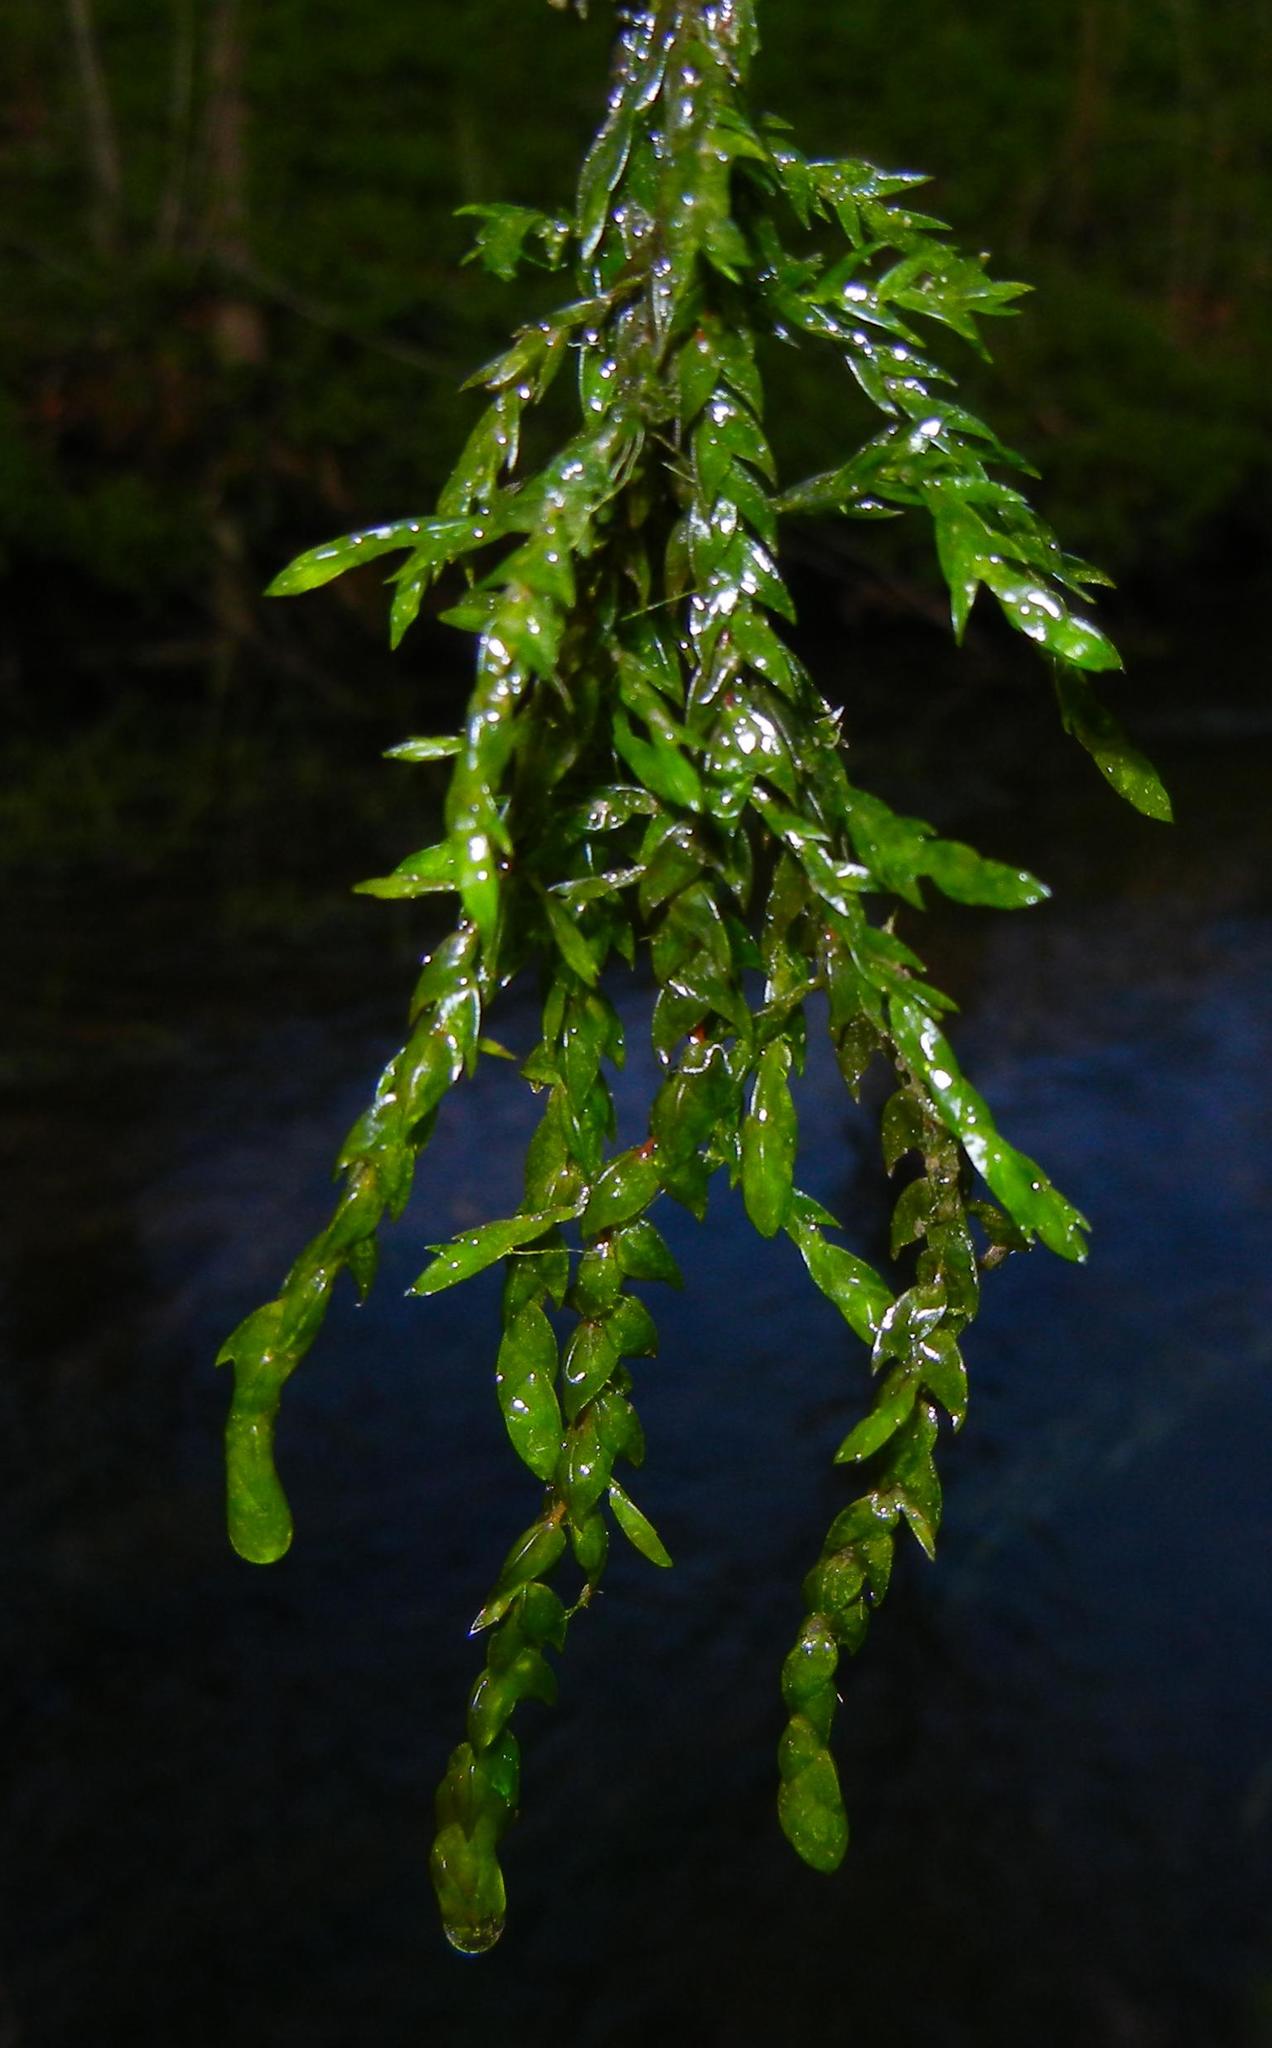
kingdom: Plantae
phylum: Bryophyta
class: Bryopsida
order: Hypnales
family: Fontinalaceae
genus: Fontinalis
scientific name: Fontinalis antipyretica
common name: Greater water-moss
